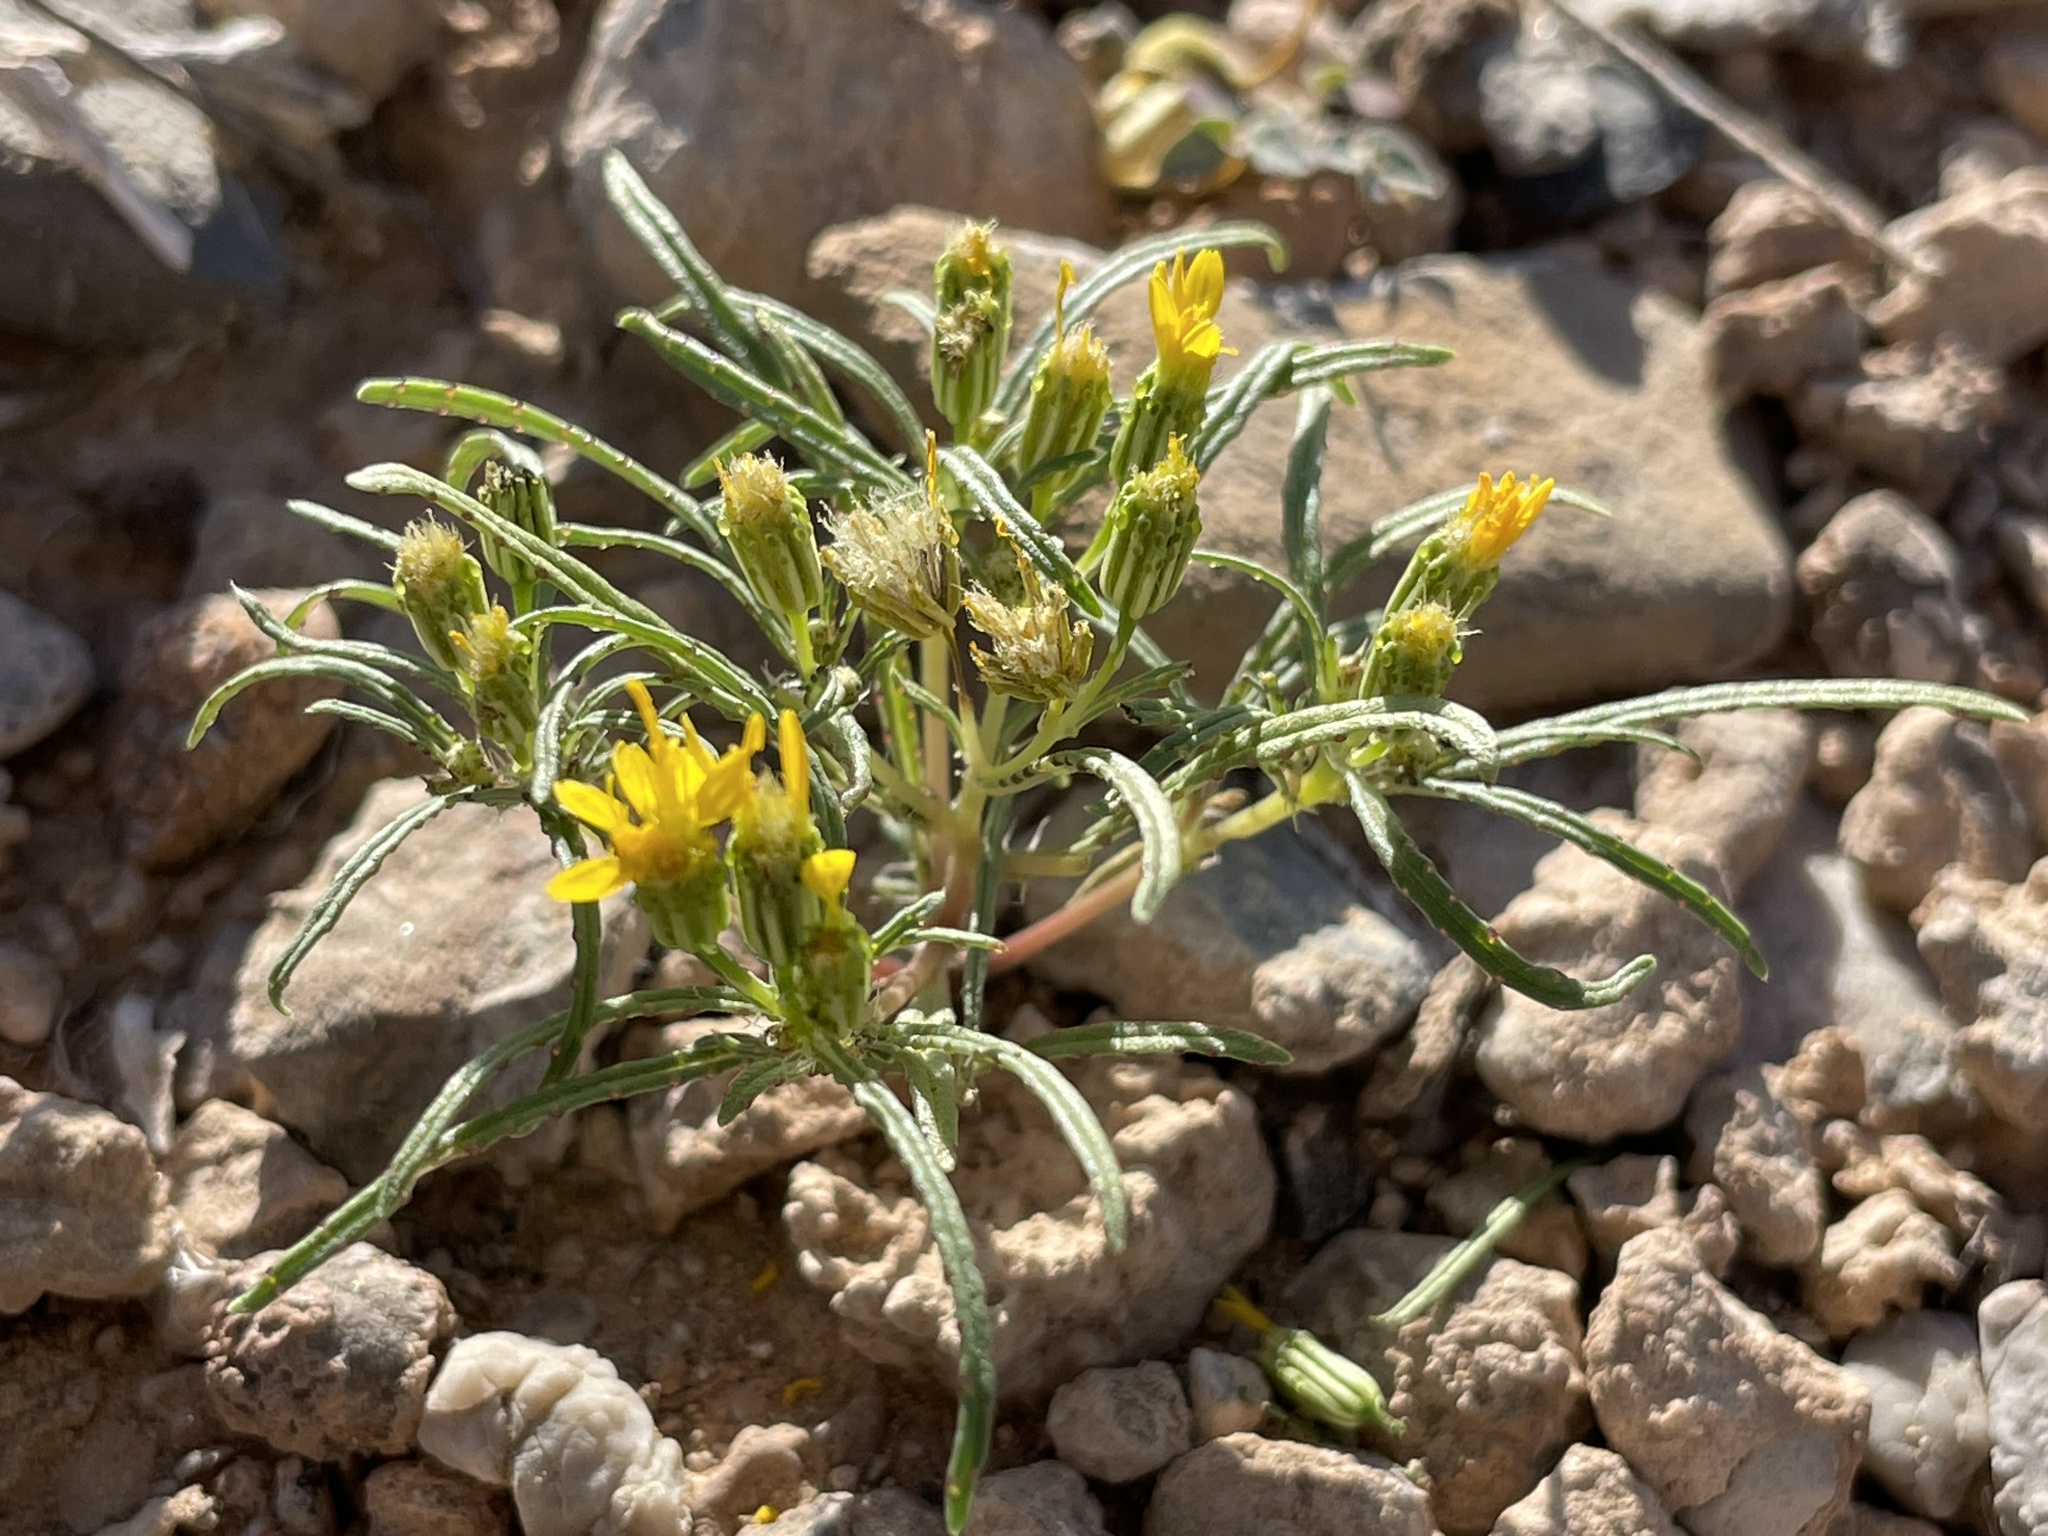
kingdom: Plantae
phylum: Tracheophyta
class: Magnoliopsida
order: Asterales
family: Asteraceae
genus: Pectis
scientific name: Pectis papposa
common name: Many-bristle chinchweed
